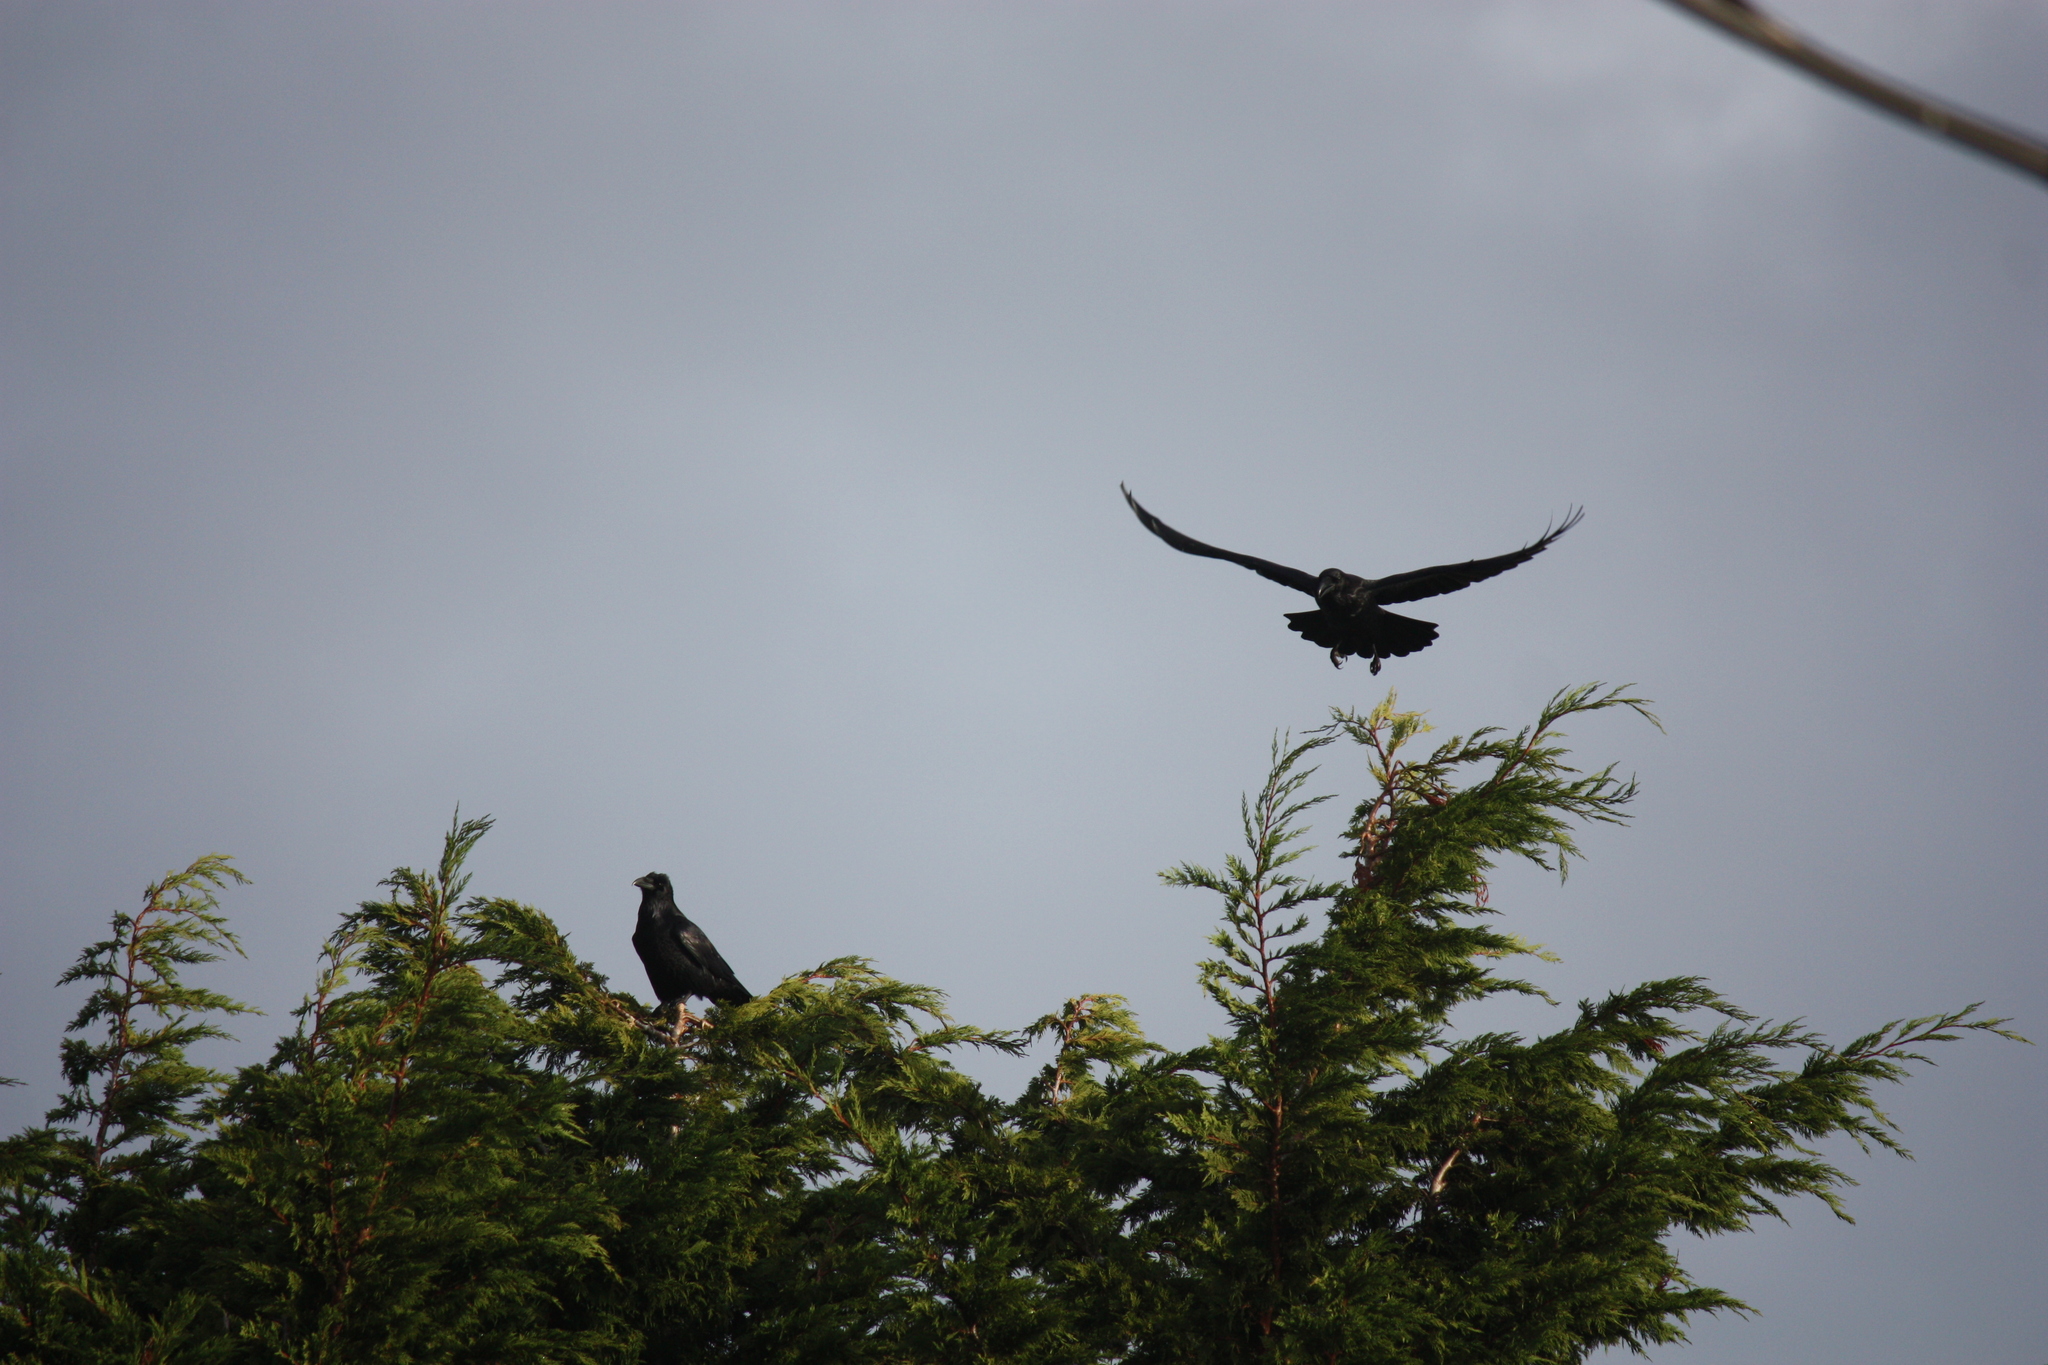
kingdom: Animalia
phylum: Chordata
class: Aves
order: Passeriformes
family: Corvidae
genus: Corvus
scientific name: Corvus corax
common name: Common raven
